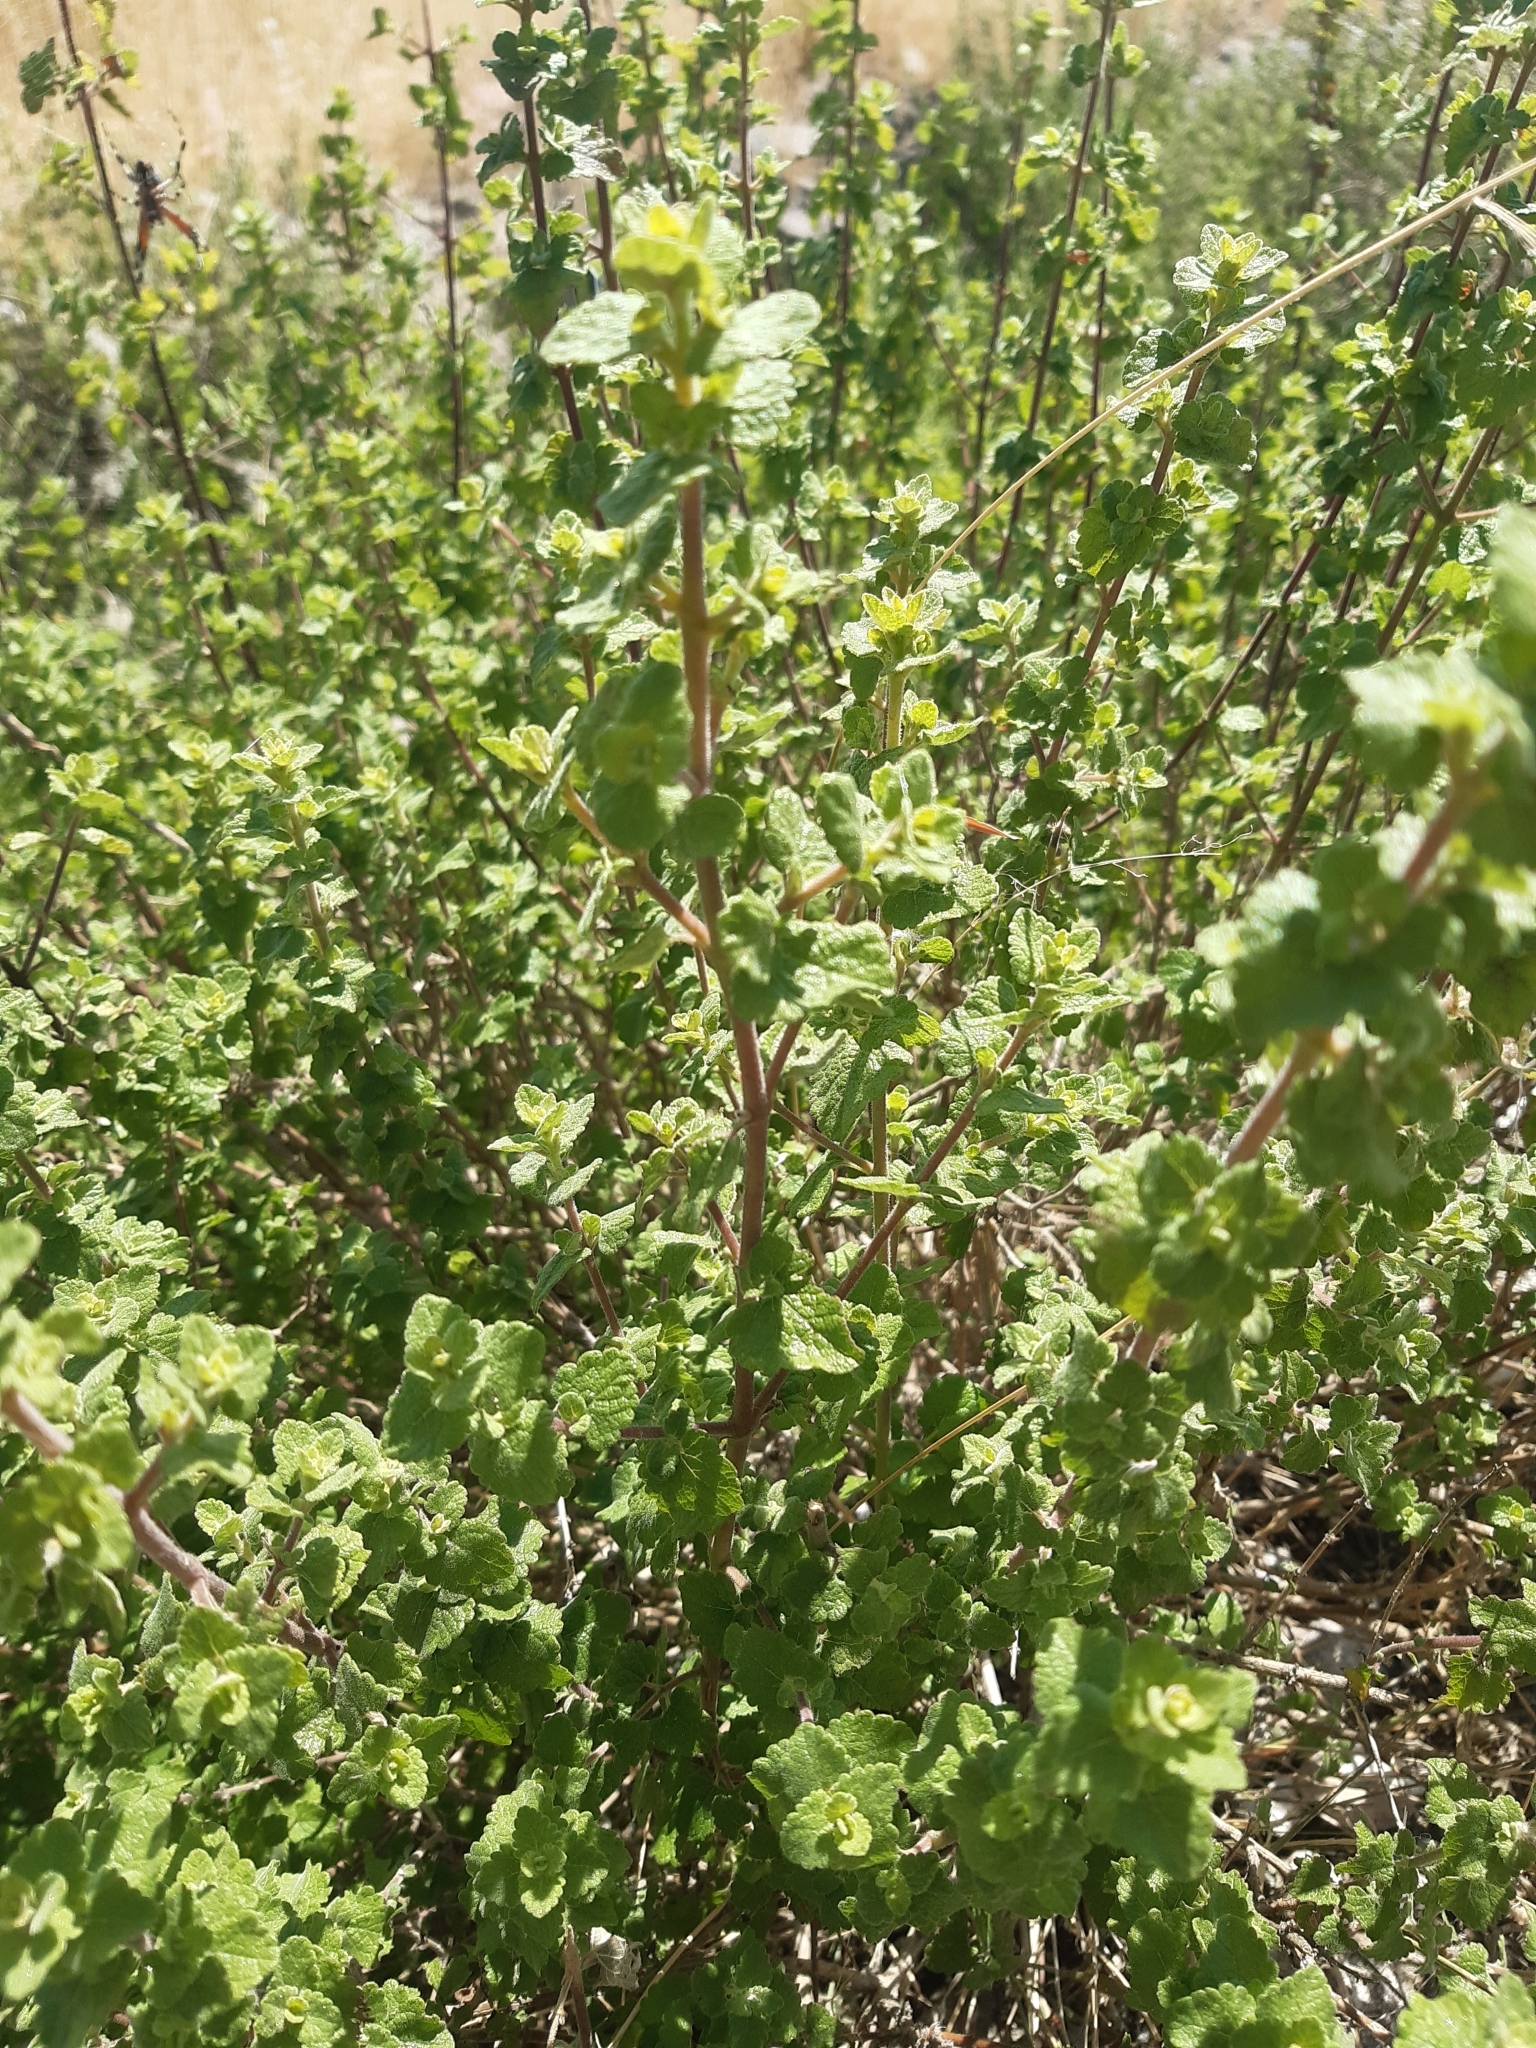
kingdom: Plantae
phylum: Tracheophyta
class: Magnoliopsida
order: Asterales
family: Asteraceae
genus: Brickellia
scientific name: Brickellia veronicifolia
